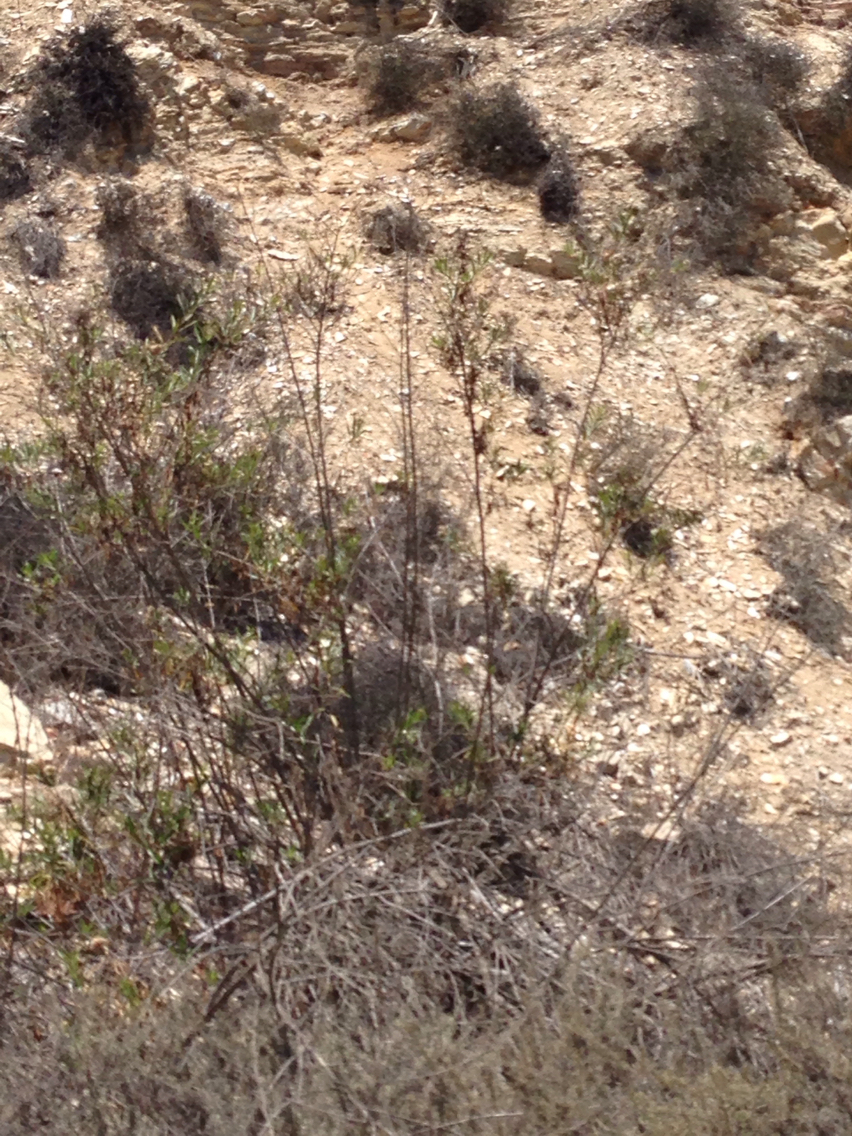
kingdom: Plantae
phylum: Tracheophyta
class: Magnoliopsida
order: Asterales
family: Asteraceae
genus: Baccharis
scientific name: Baccharis salicifolia
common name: Sticky baccharis
